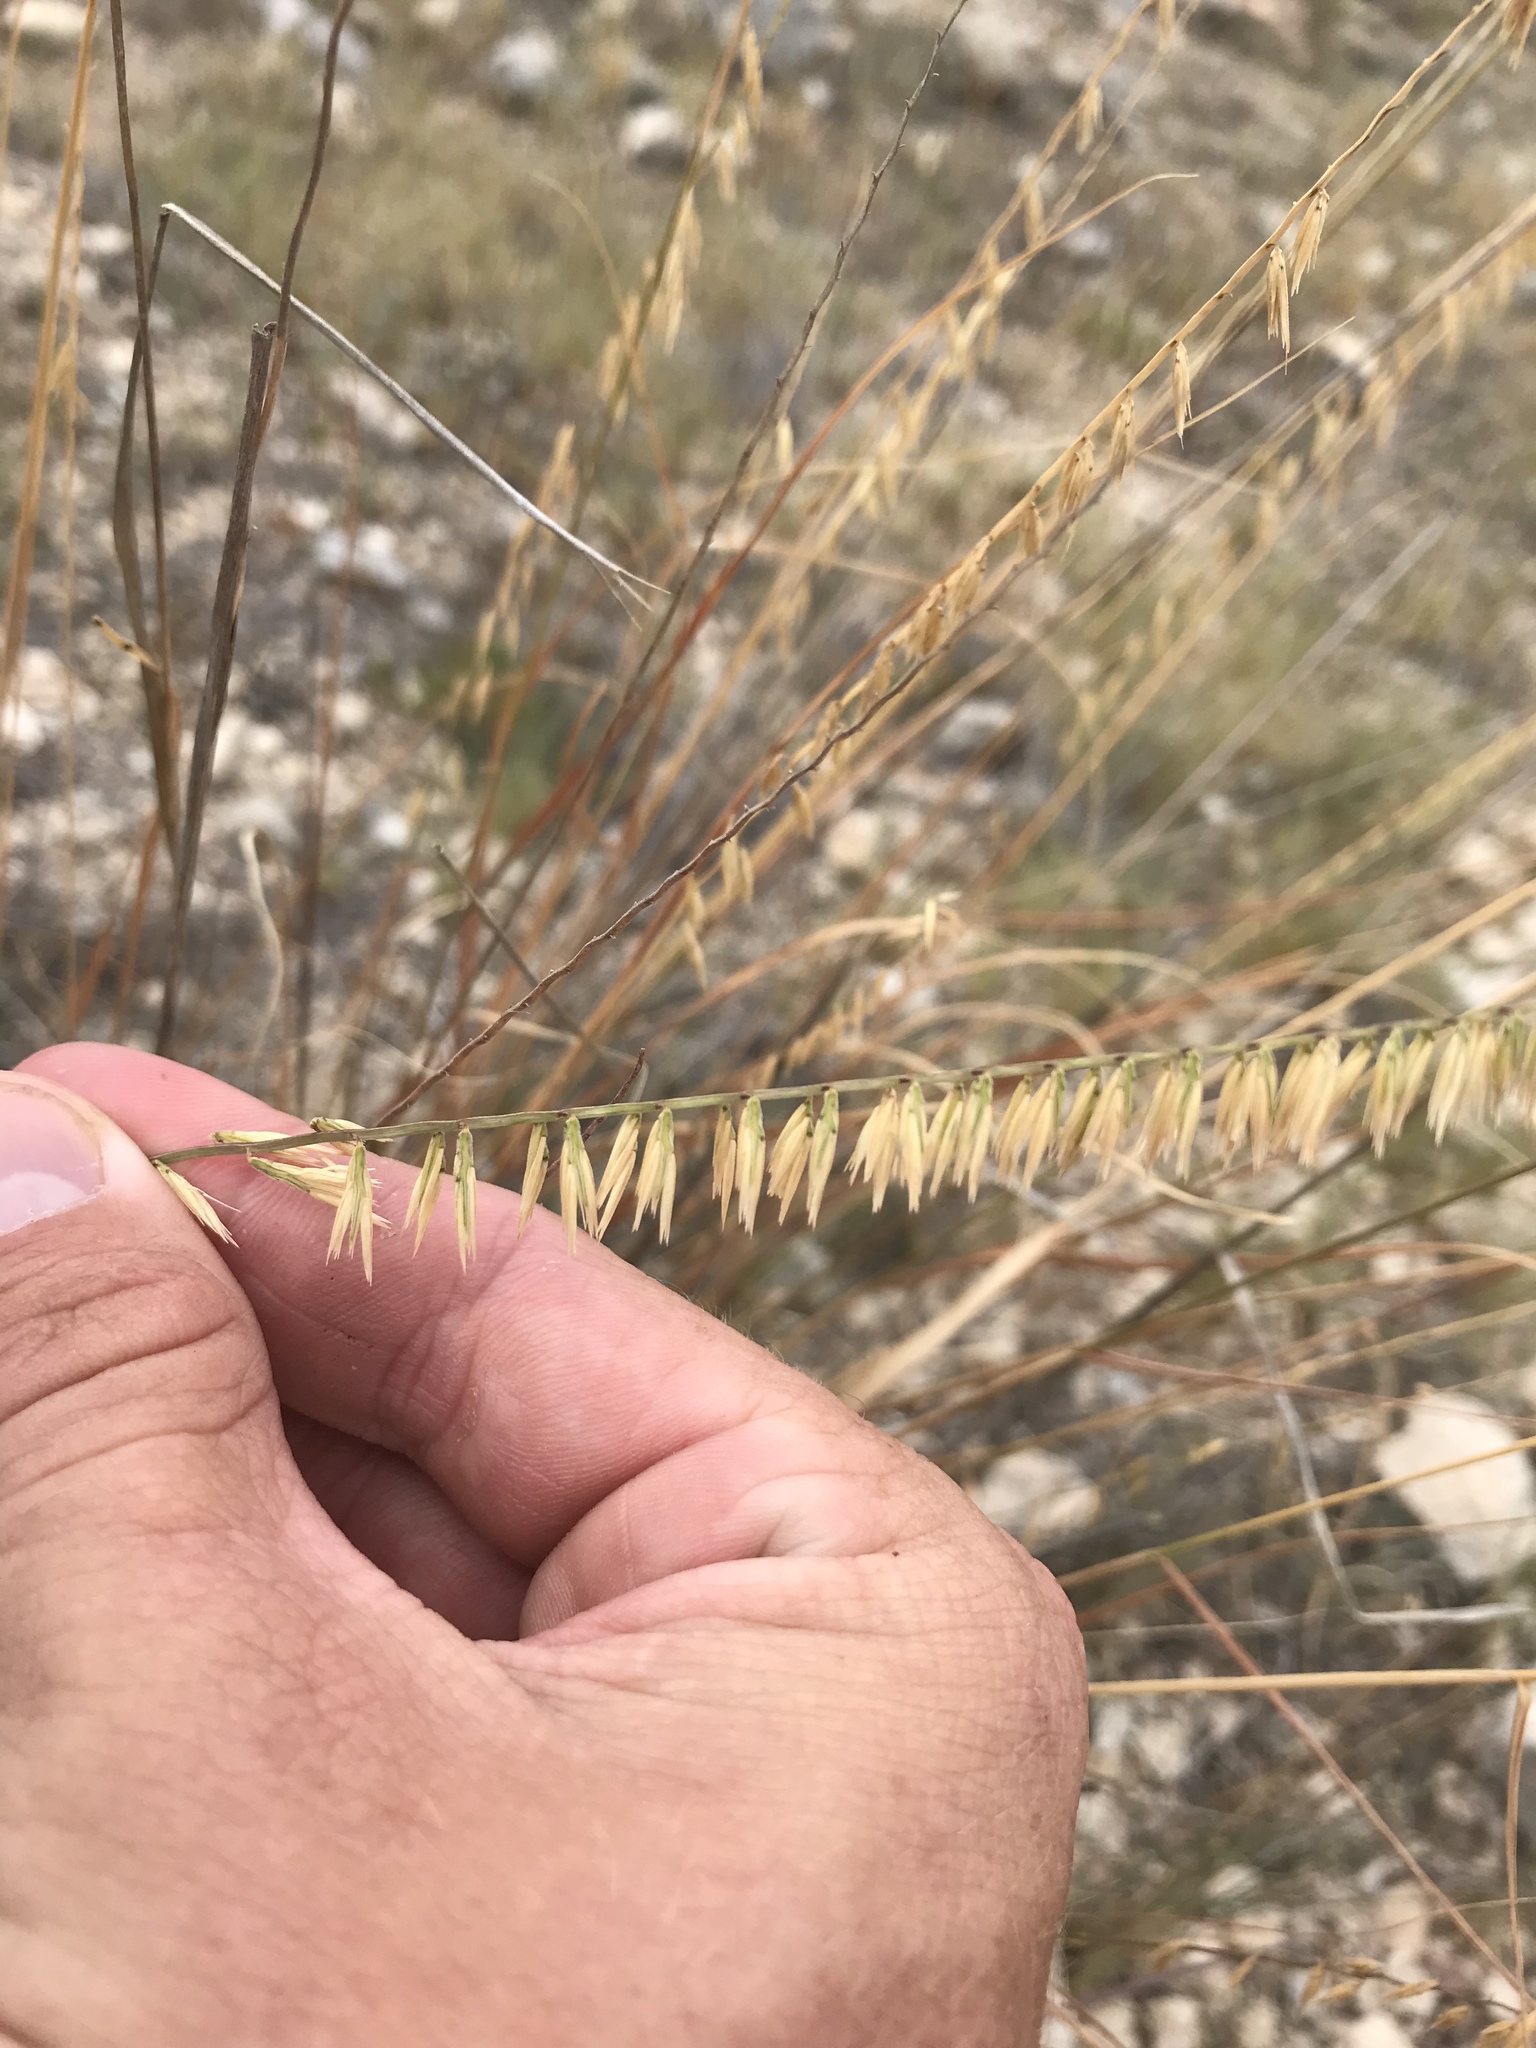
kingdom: Plantae
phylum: Tracheophyta
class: Liliopsida
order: Poales
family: Poaceae
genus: Bouteloua
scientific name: Bouteloua curtipendula
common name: Side-oats grama
